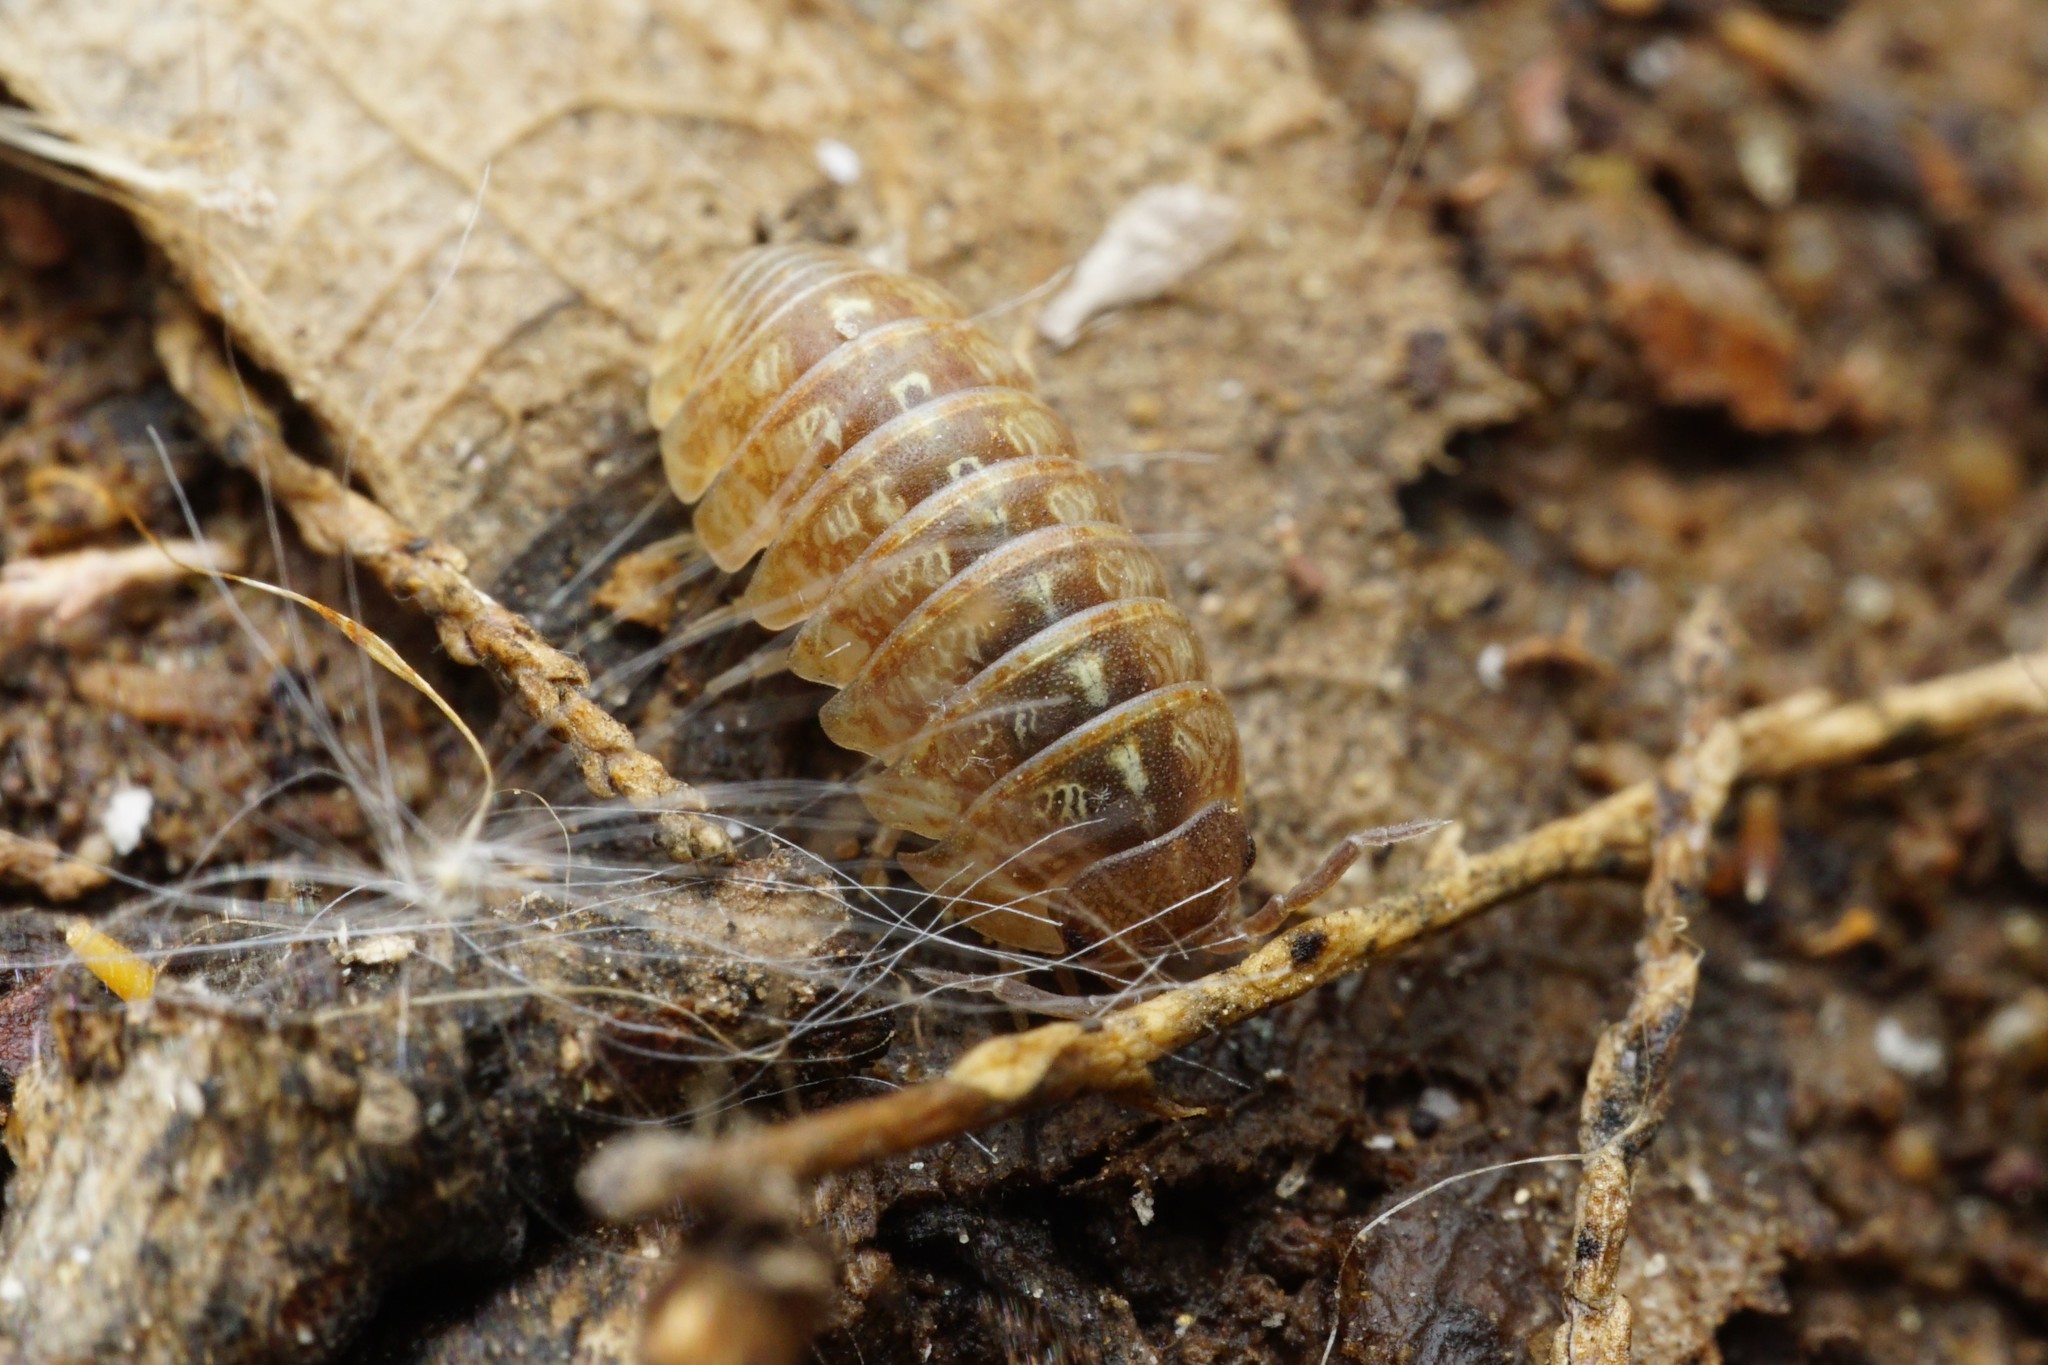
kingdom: Animalia
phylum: Arthropoda
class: Malacostraca
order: Isopoda
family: Armadillidiidae
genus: Armadillidium
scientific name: Armadillidium vulgare
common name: Common pill woodlouse
